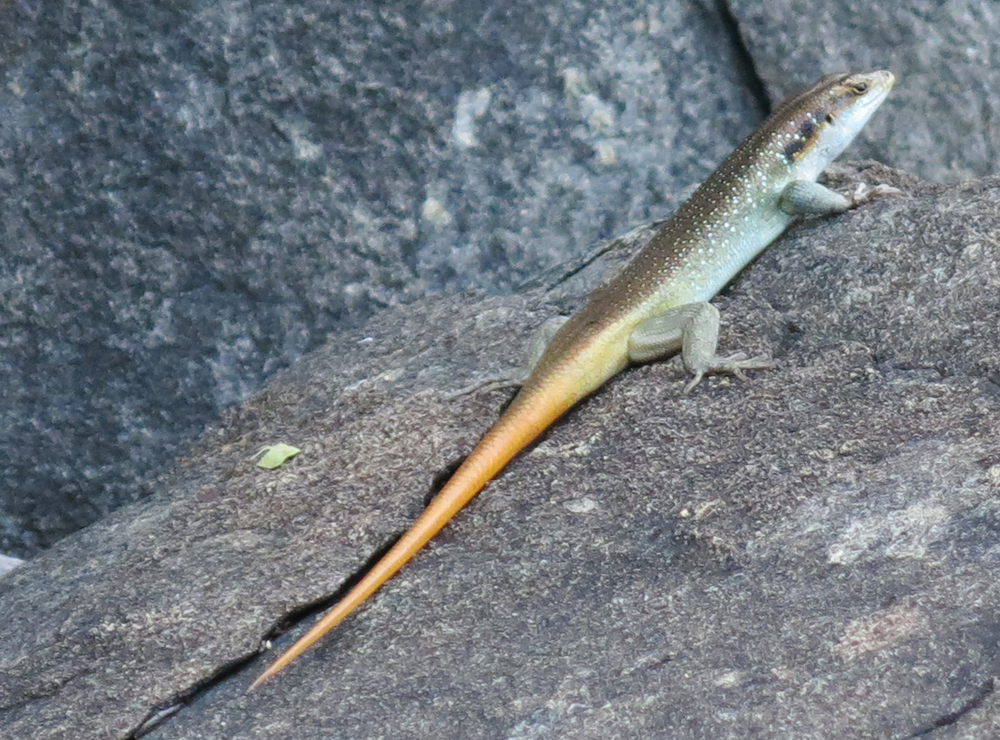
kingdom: Animalia
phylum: Chordata
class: Squamata
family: Scincidae
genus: Trachylepis
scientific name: Trachylepis margaritifera
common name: Rainbow skink
